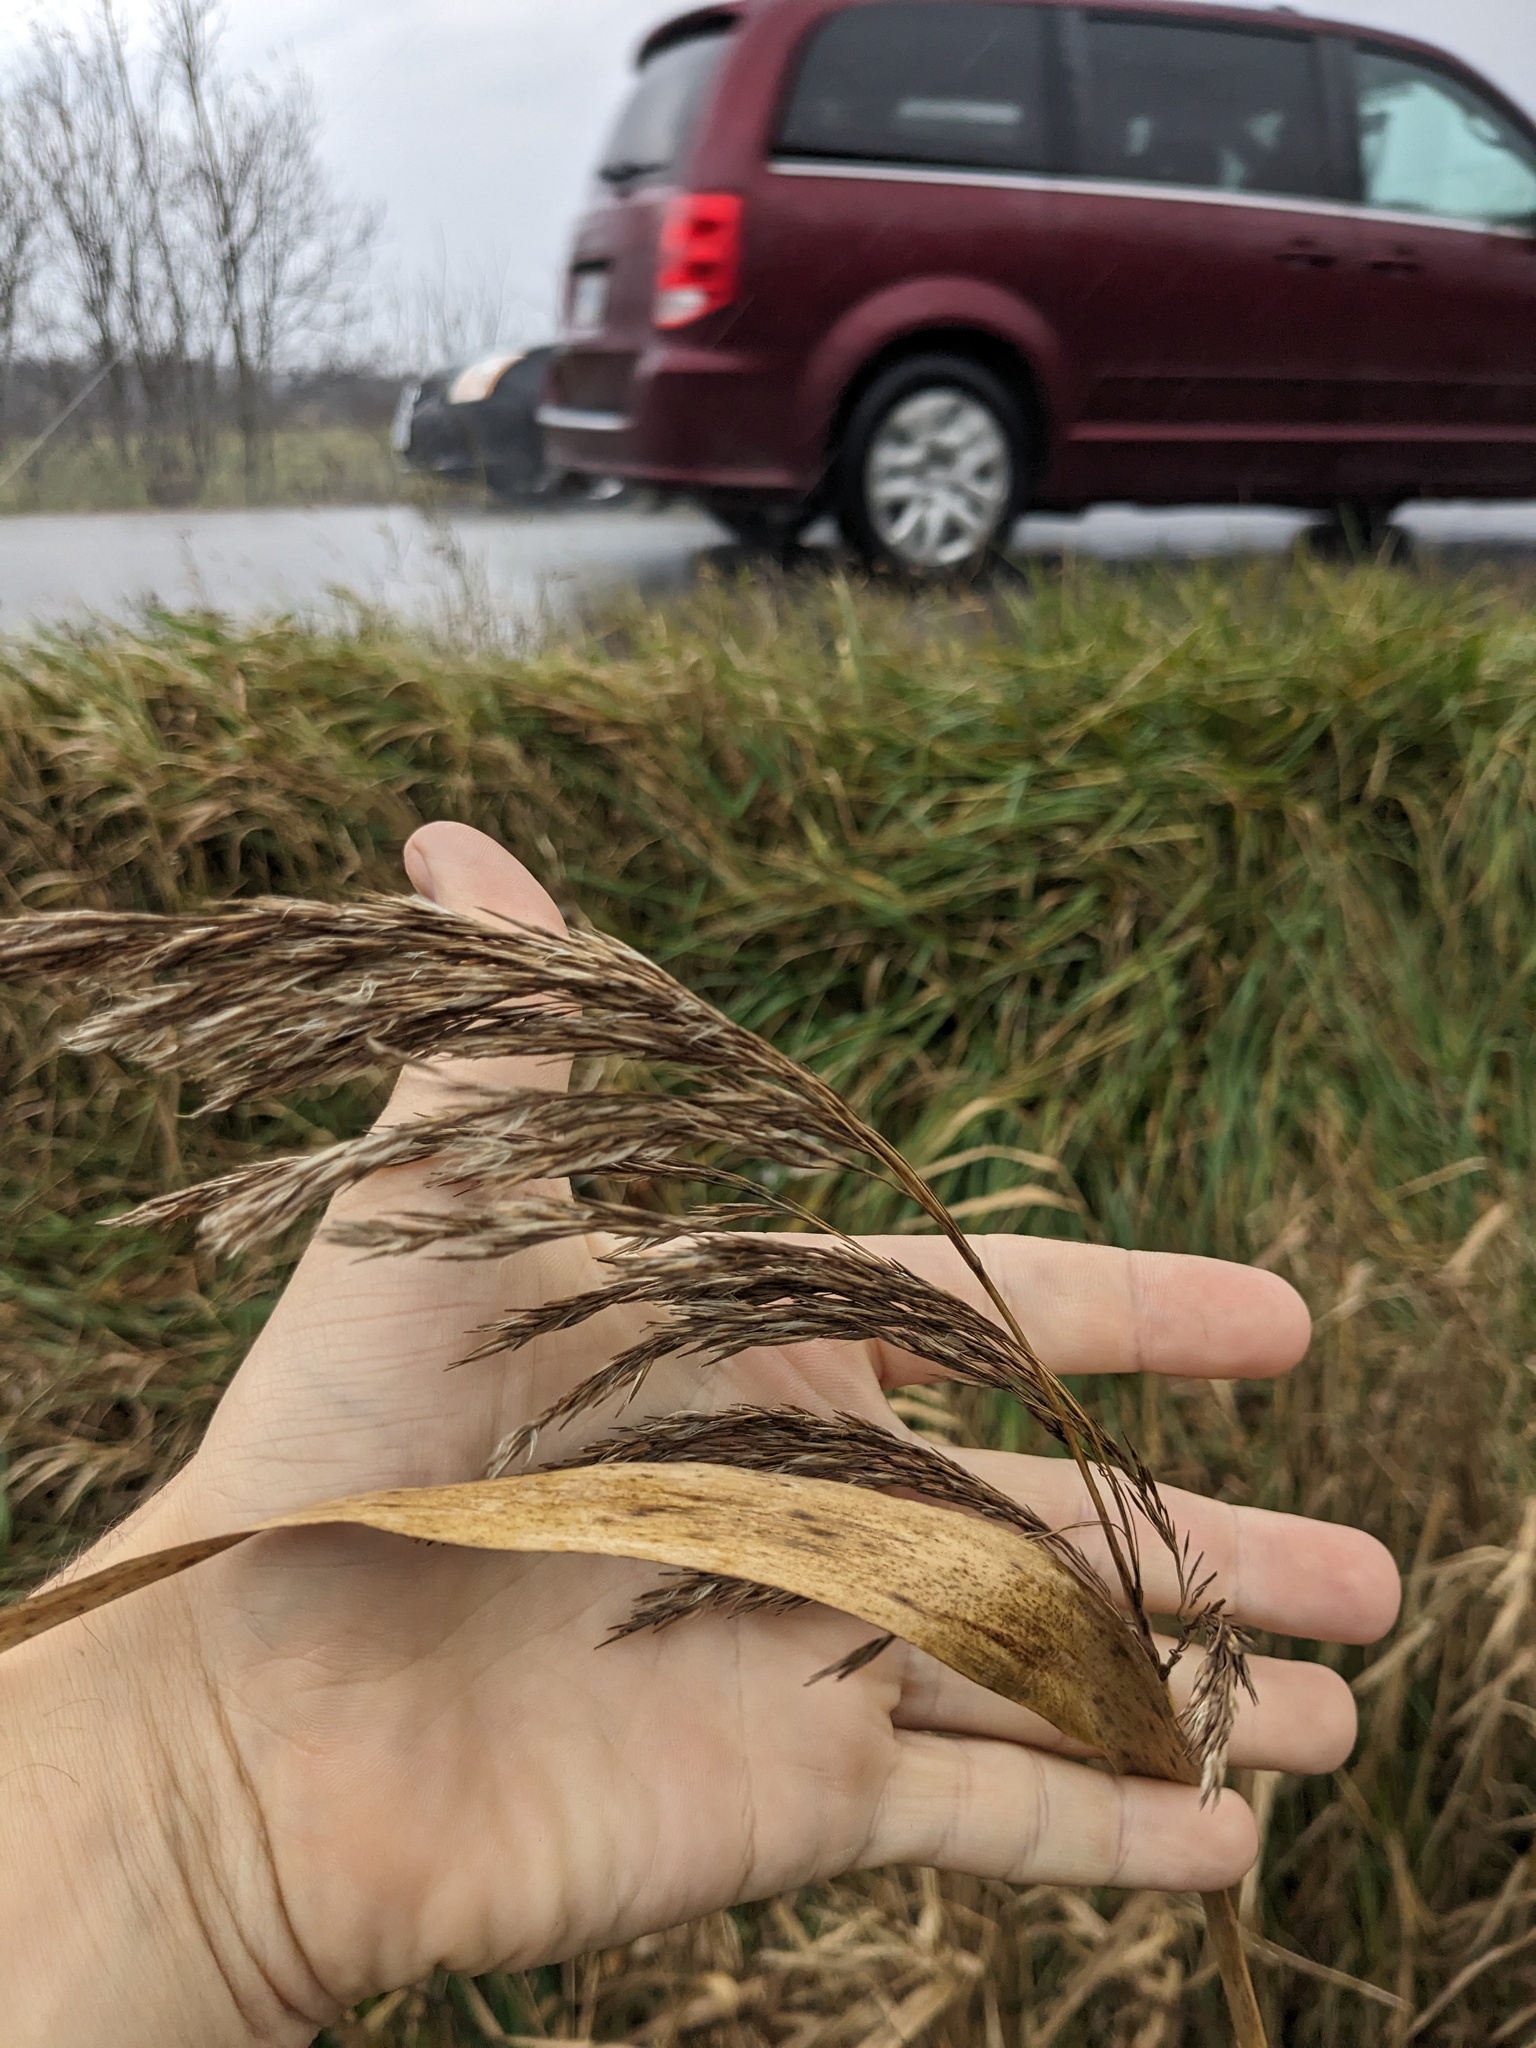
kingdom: Plantae
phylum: Tracheophyta
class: Liliopsida
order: Poales
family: Poaceae
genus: Phragmites
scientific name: Phragmites australis
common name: Common reed
